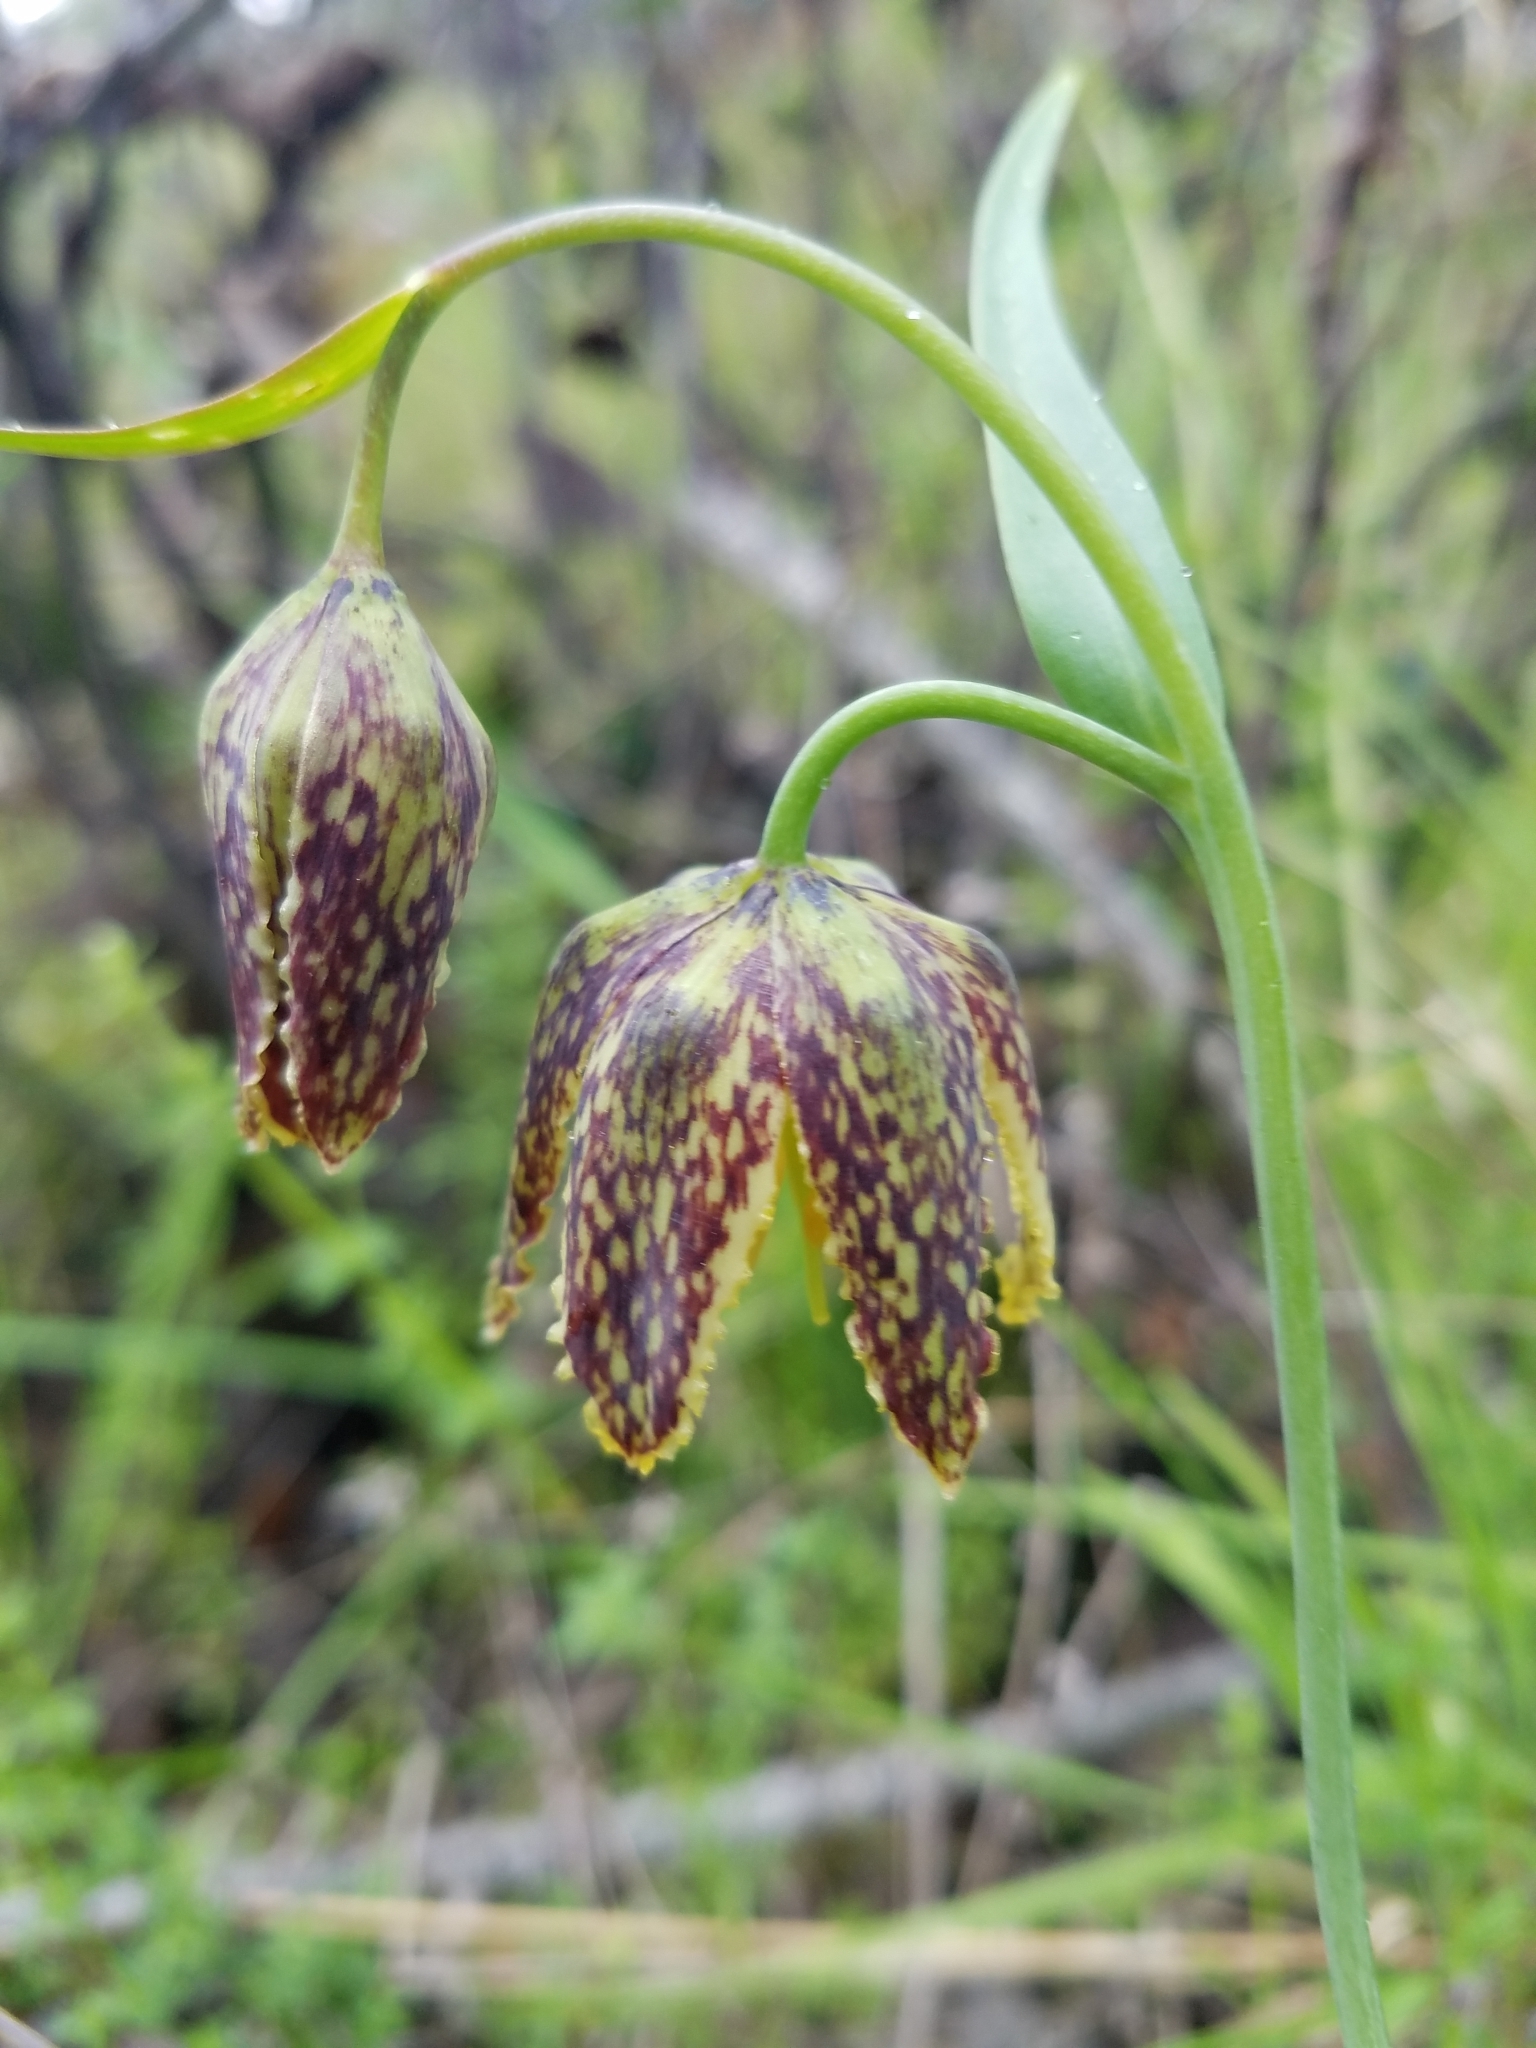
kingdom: Plantae
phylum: Tracheophyta
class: Liliopsida
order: Liliales
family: Liliaceae
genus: Fritillaria
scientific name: Fritillaria affinis
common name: Ojai fritillary
